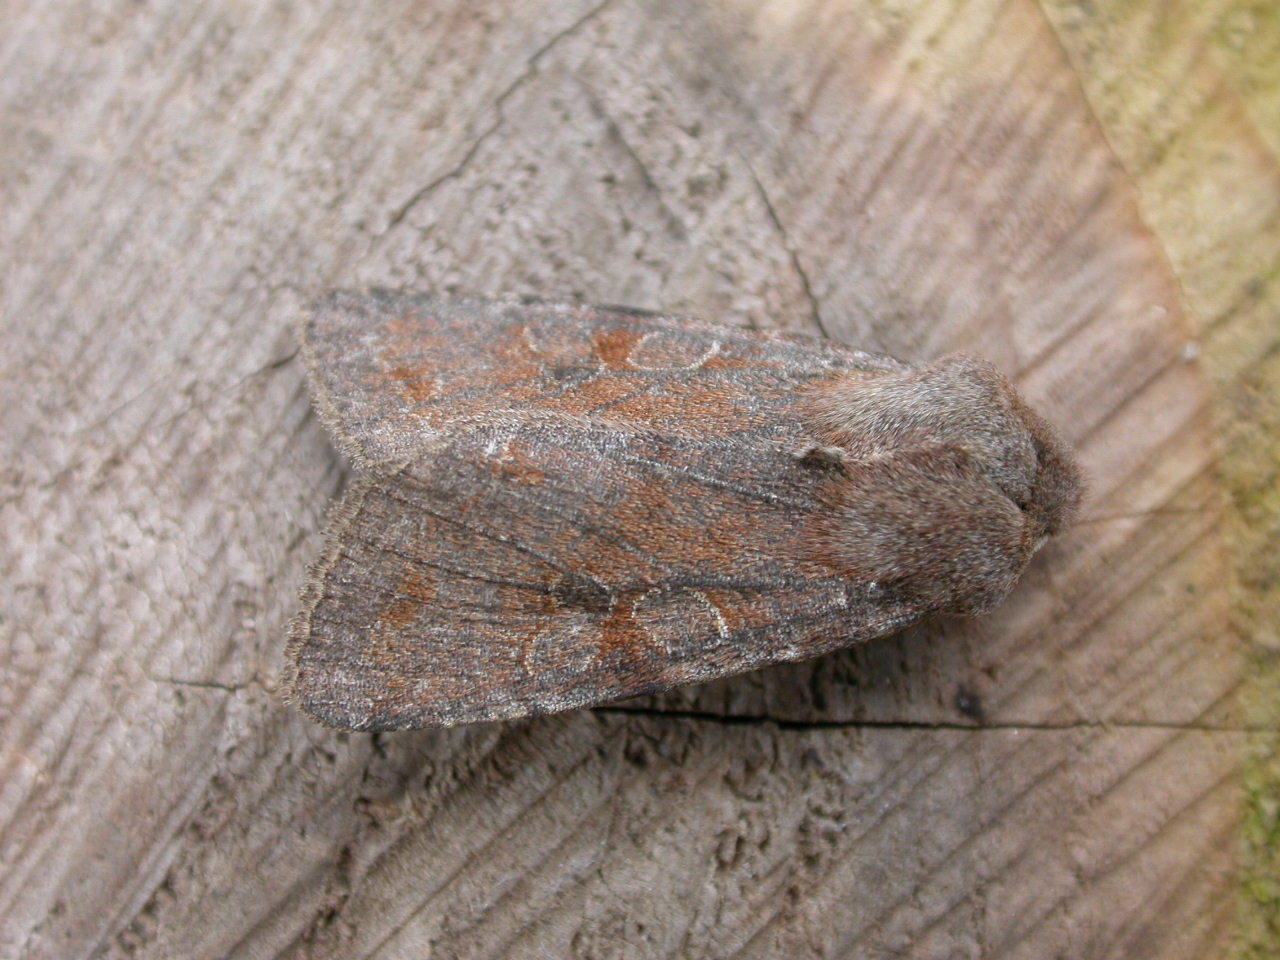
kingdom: Animalia
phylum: Arthropoda
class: Insecta
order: Lepidoptera
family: Noctuidae
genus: Orthosia
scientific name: Orthosia incerta
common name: Clouded drab
